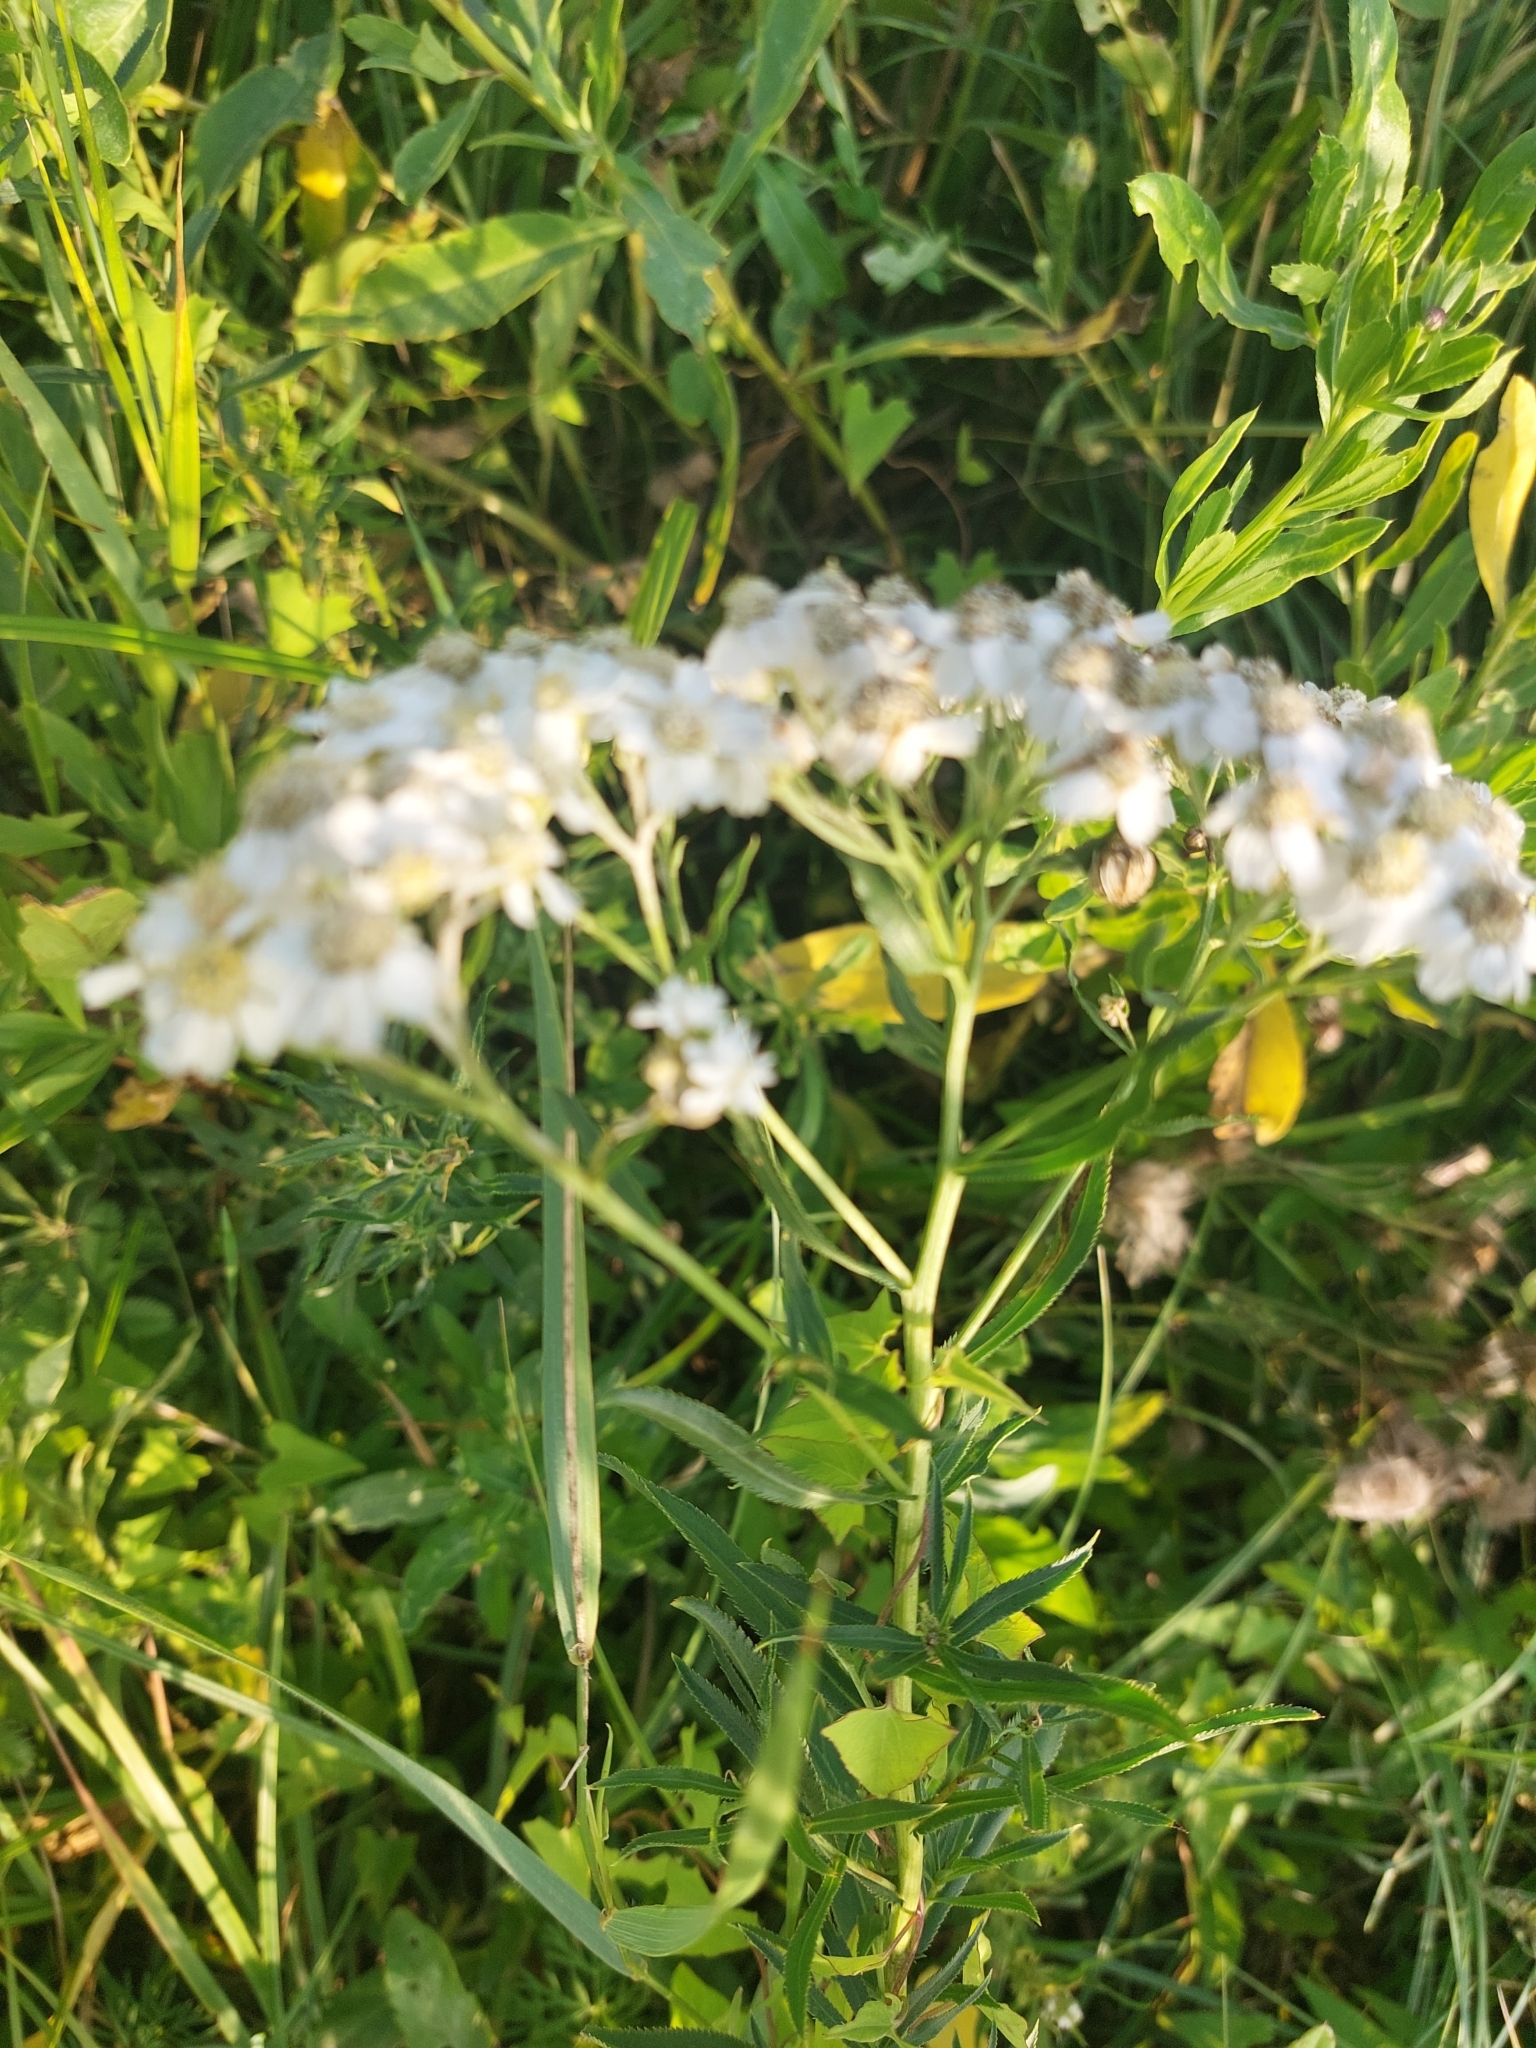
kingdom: Plantae
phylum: Tracheophyta
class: Magnoliopsida
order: Asterales
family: Asteraceae
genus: Achillea
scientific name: Achillea salicifolia
